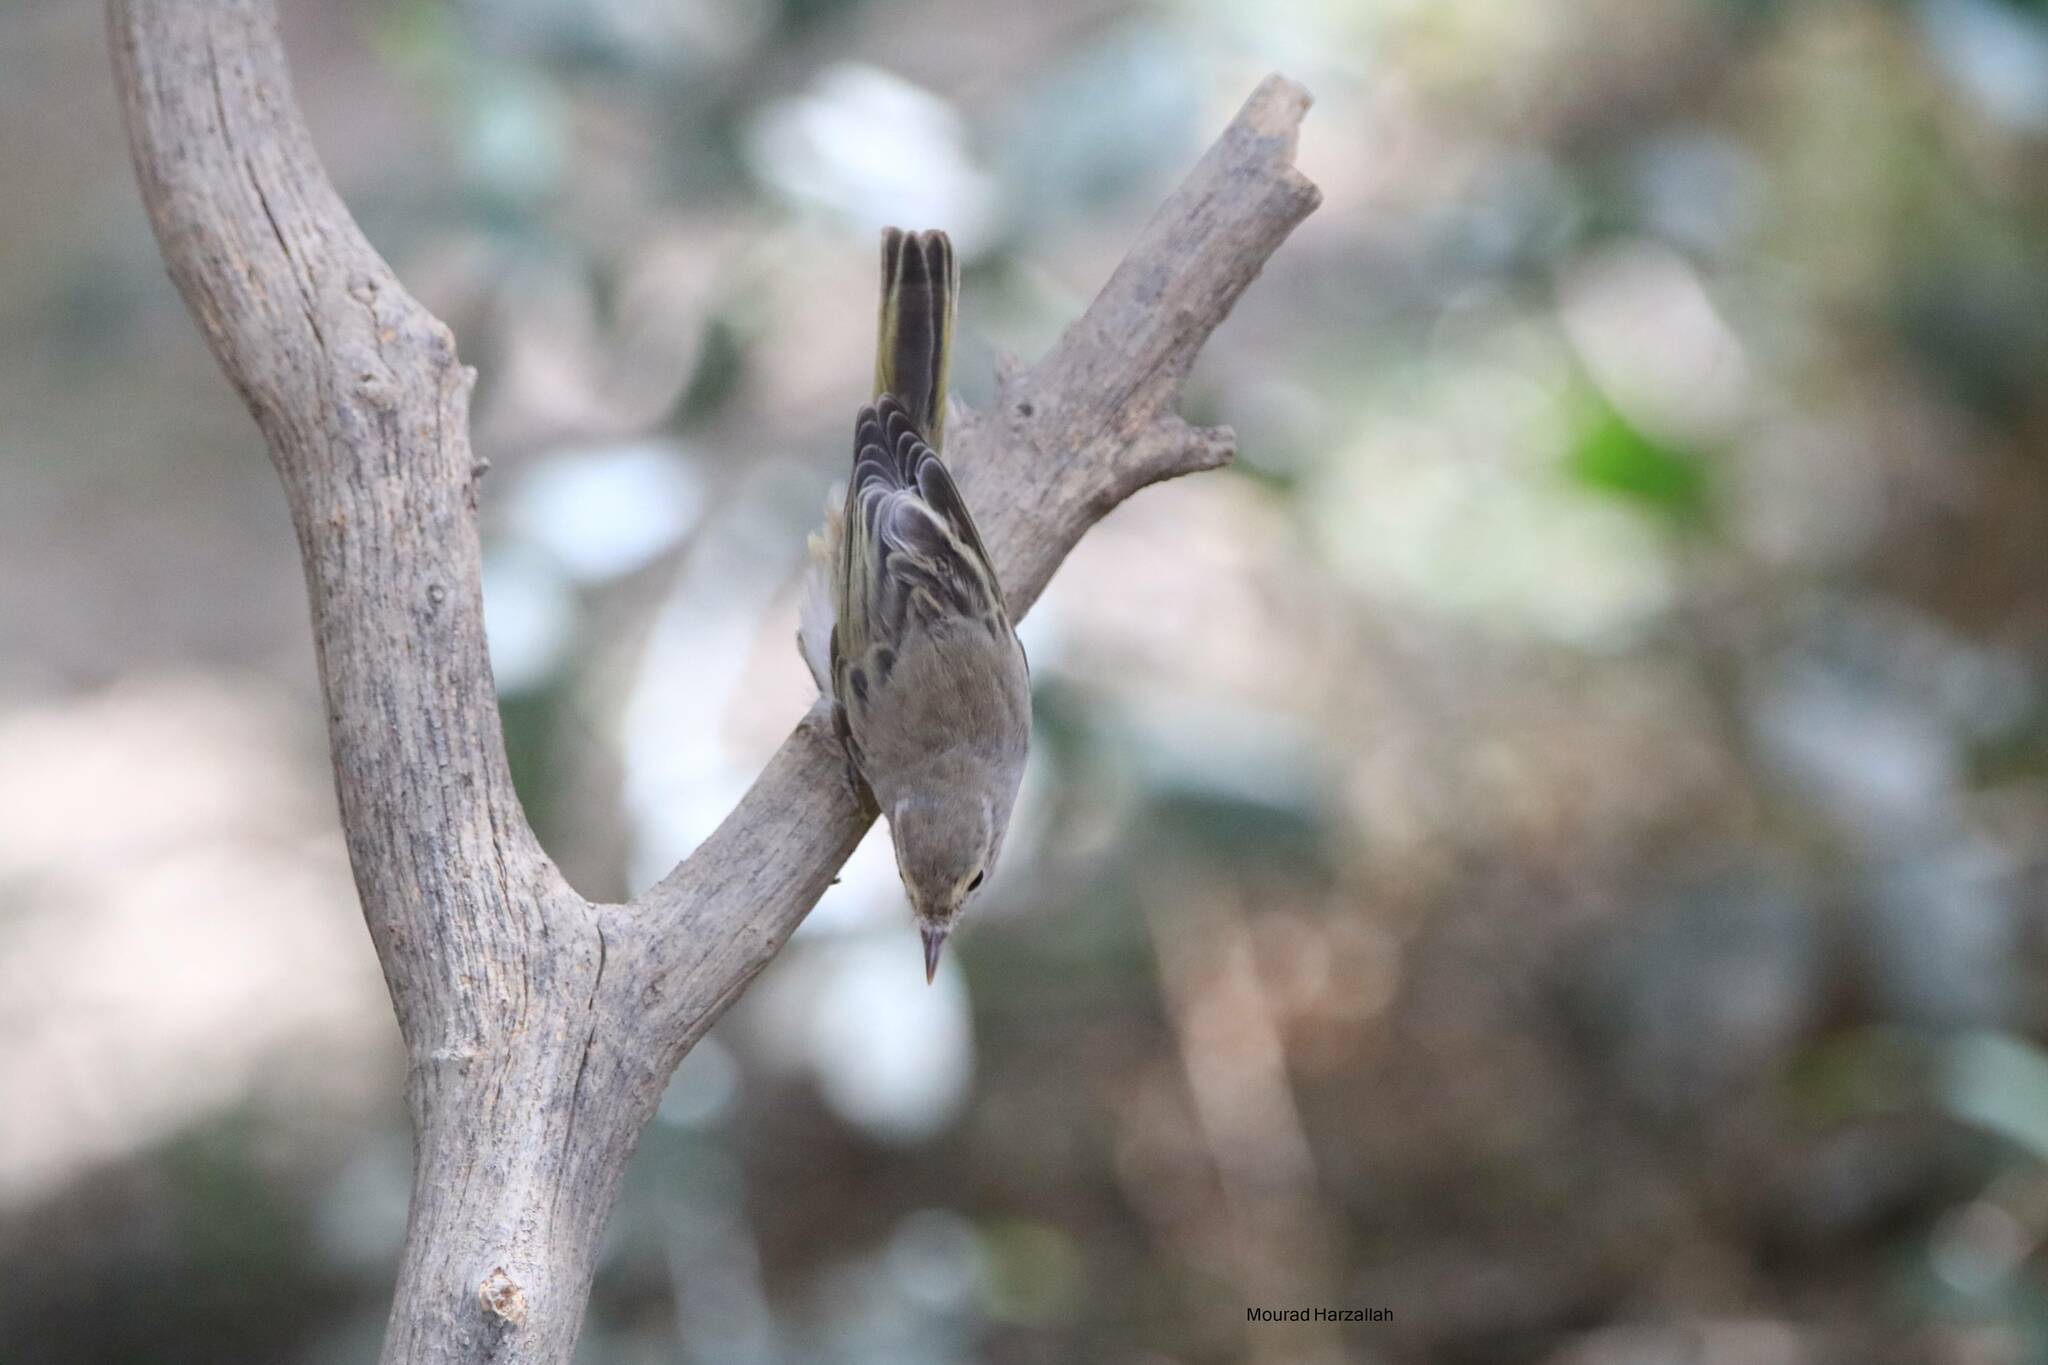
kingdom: Animalia
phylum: Chordata
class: Aves
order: Passeriformes
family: Phylloscopidae
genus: Phylloscopus
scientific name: Phylloscopus bonelli
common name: Western bonelli's warbler
